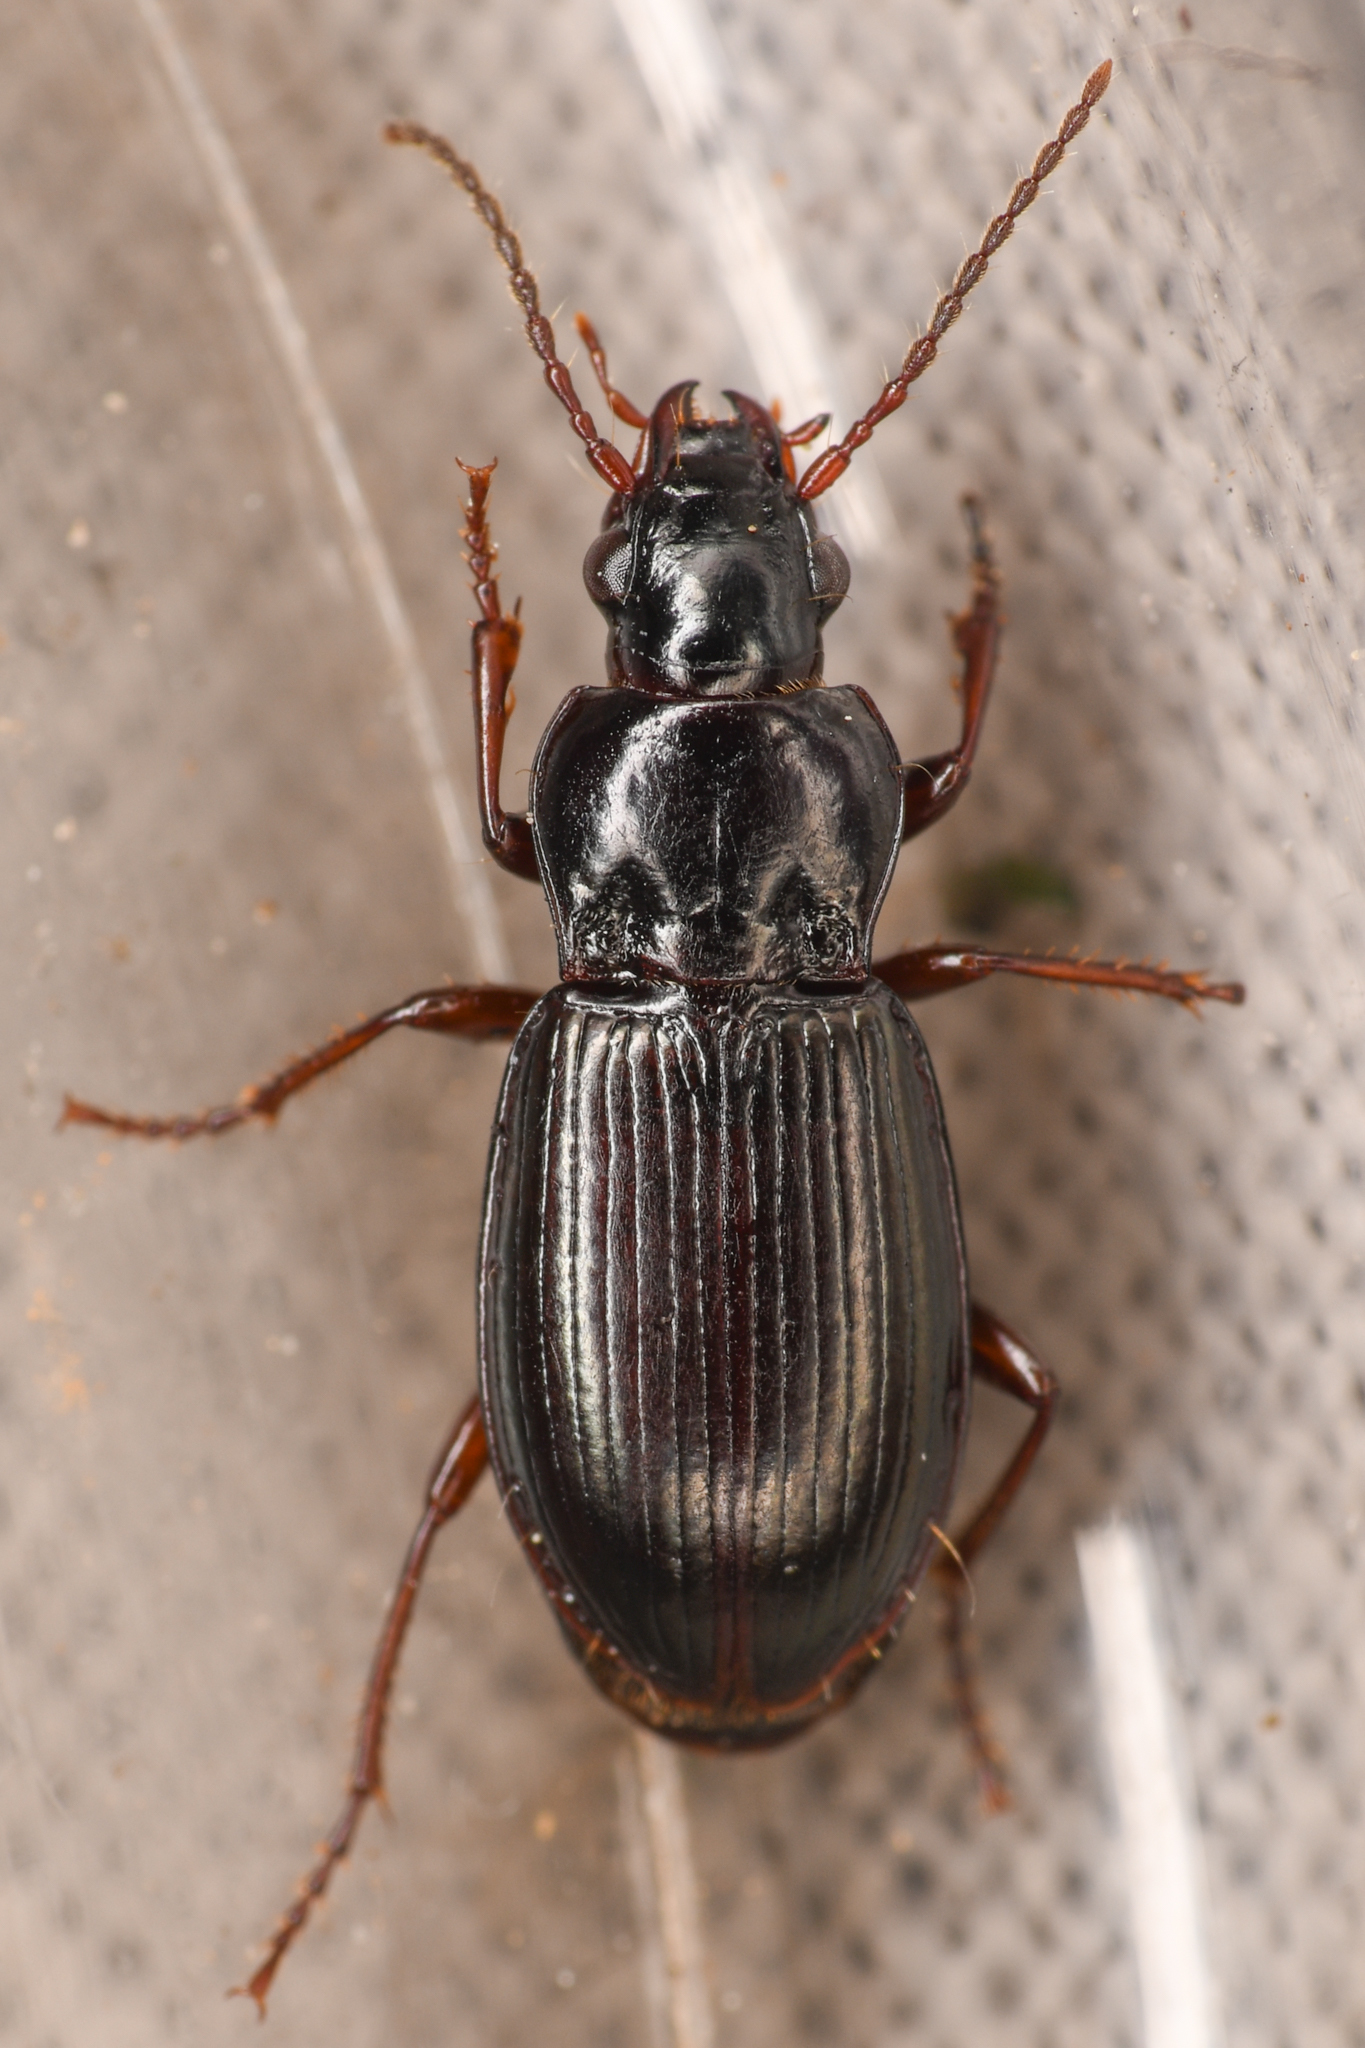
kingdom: Animalia
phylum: Arthropoda
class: Insecta
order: Coleoptera
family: Carabidae
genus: Pterostichus
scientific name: Pterostichus riparius
